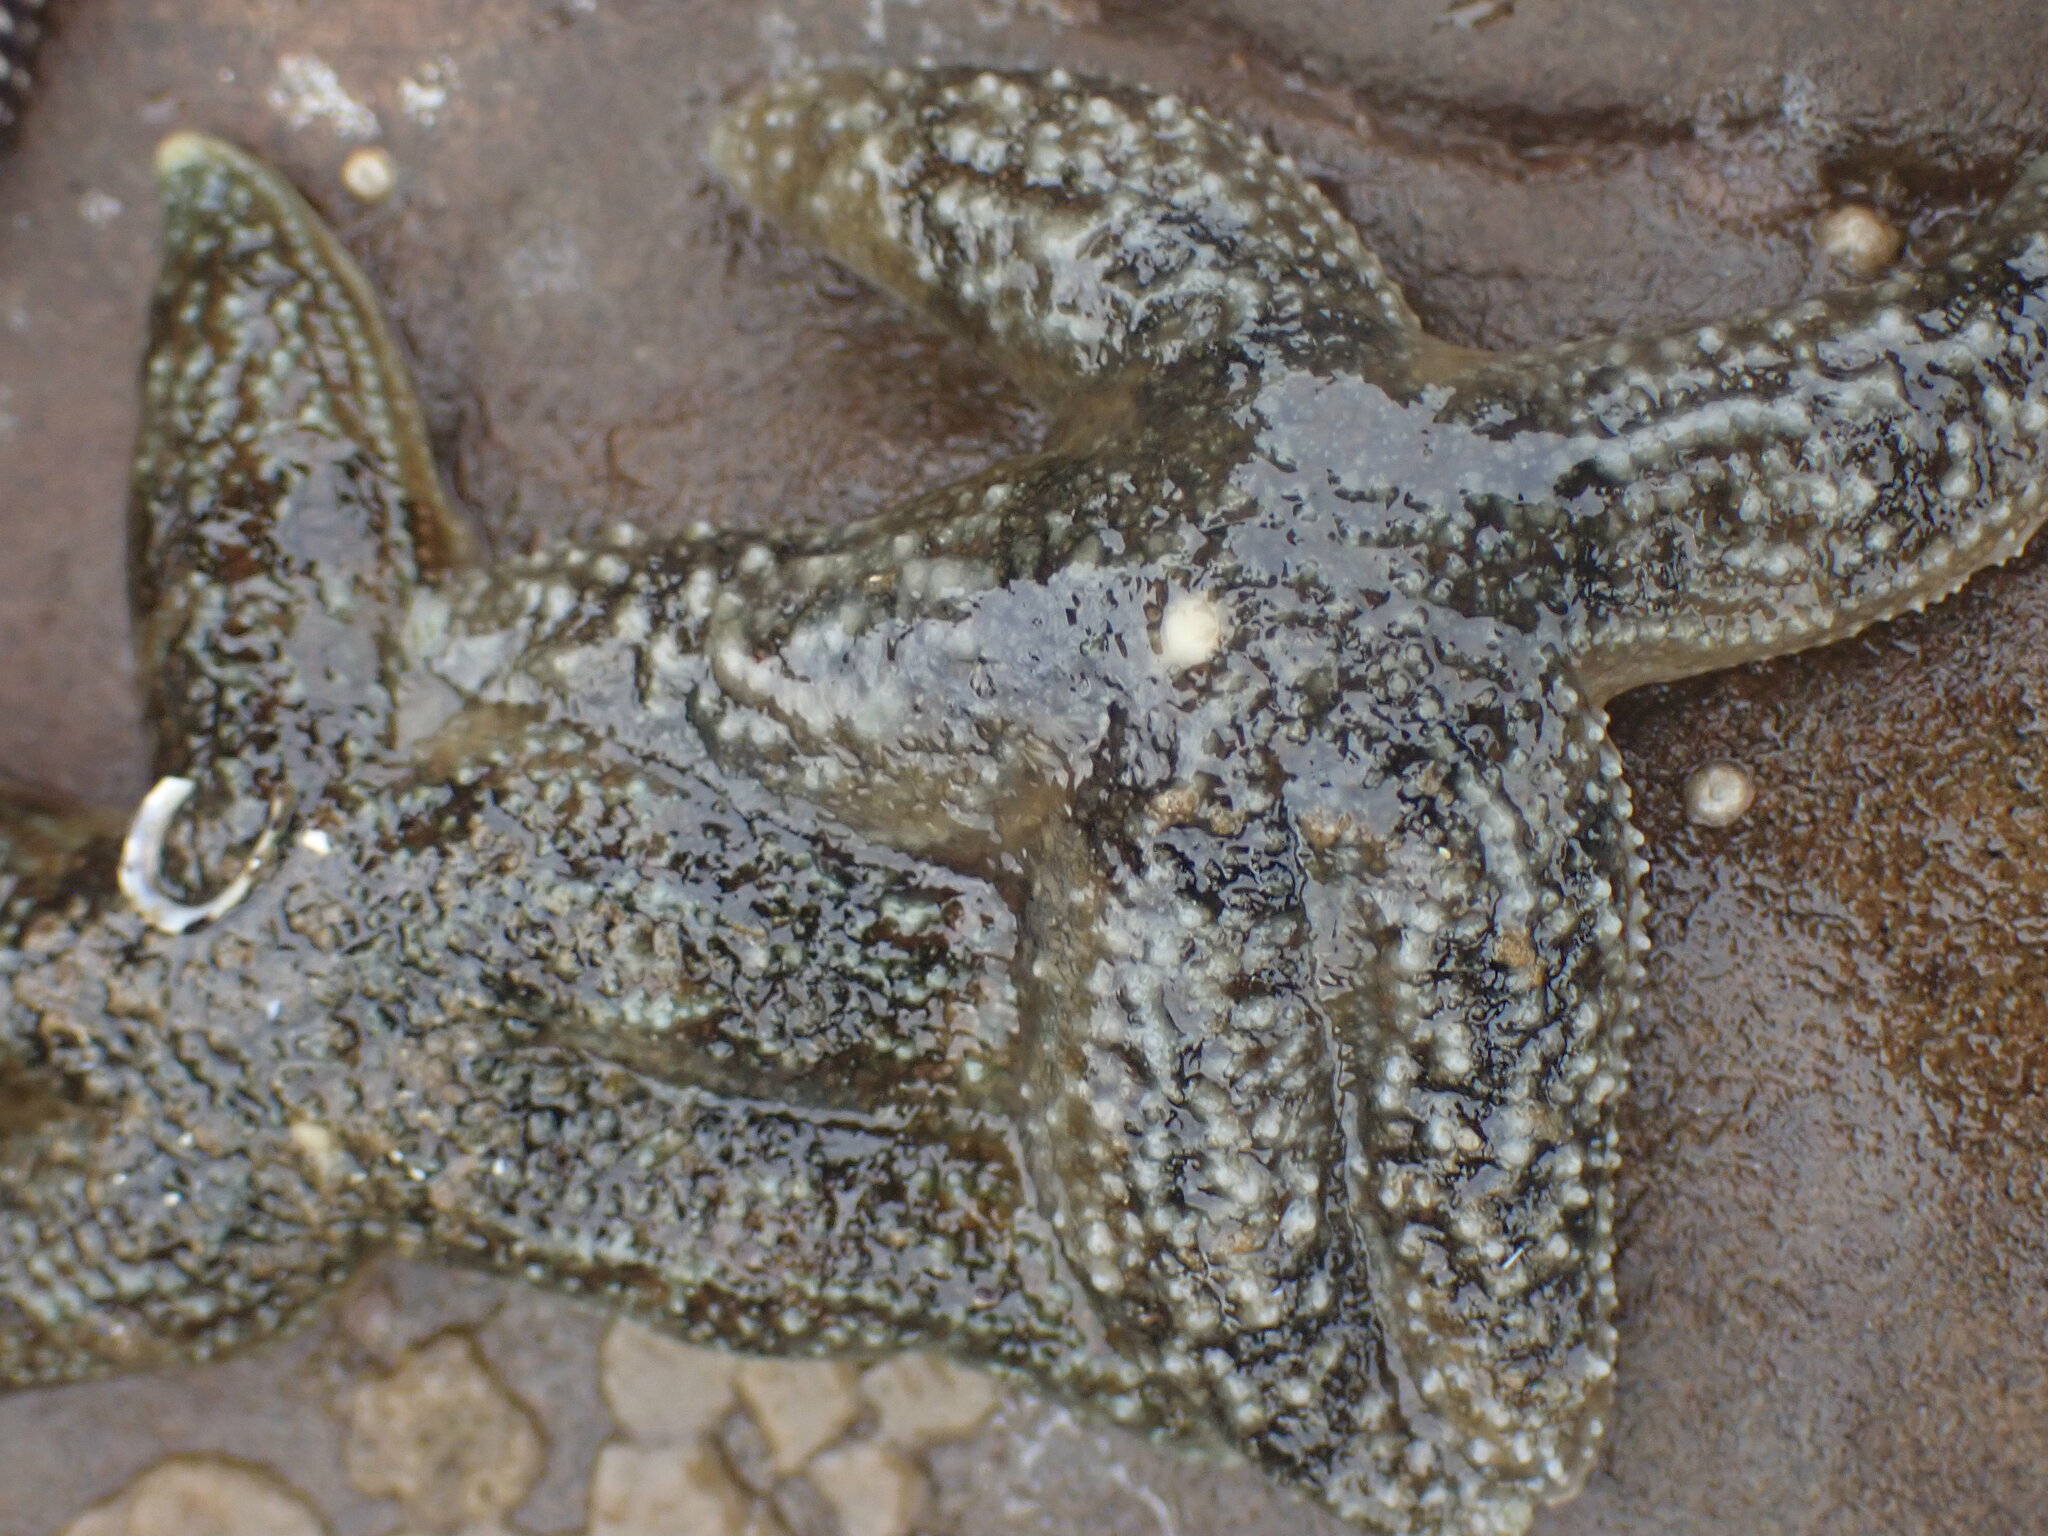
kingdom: Animalia
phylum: Echinodermata
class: Asteroidea
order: Forcipulatida
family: Asteriidae
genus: Evasterias
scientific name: Evasterias troschelii
